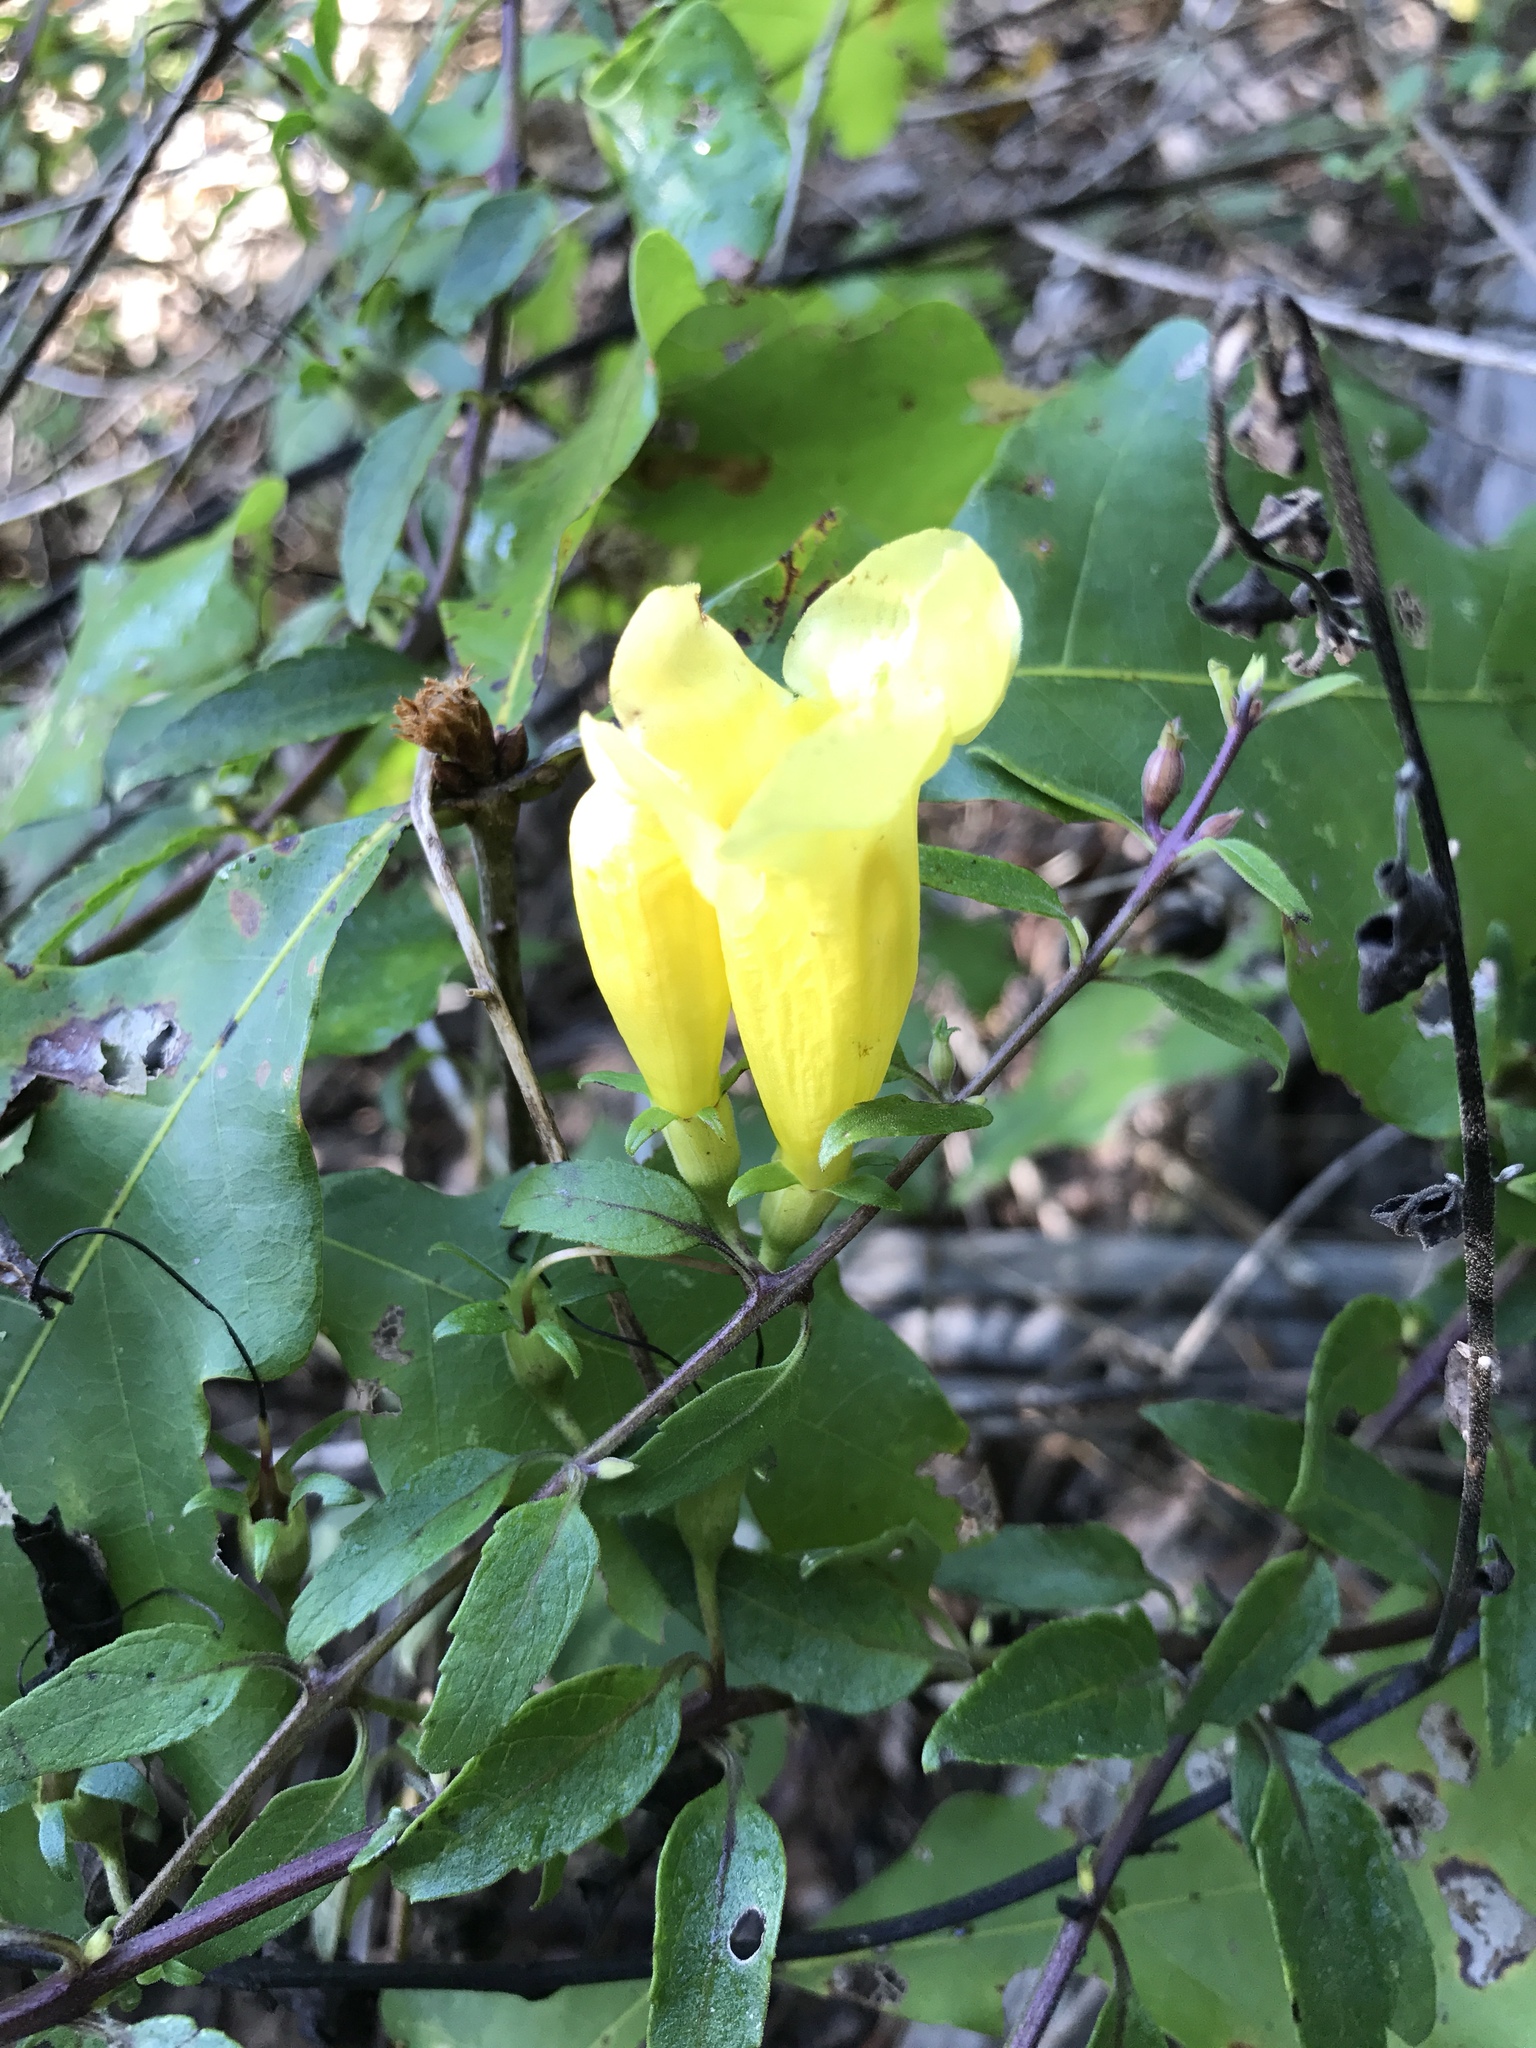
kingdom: Plantae
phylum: Tracheophyta
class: Magnoliopsida
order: Lamiales
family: Orobanchaceae
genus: Aureolaria
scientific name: Aureolaria grandiflora
